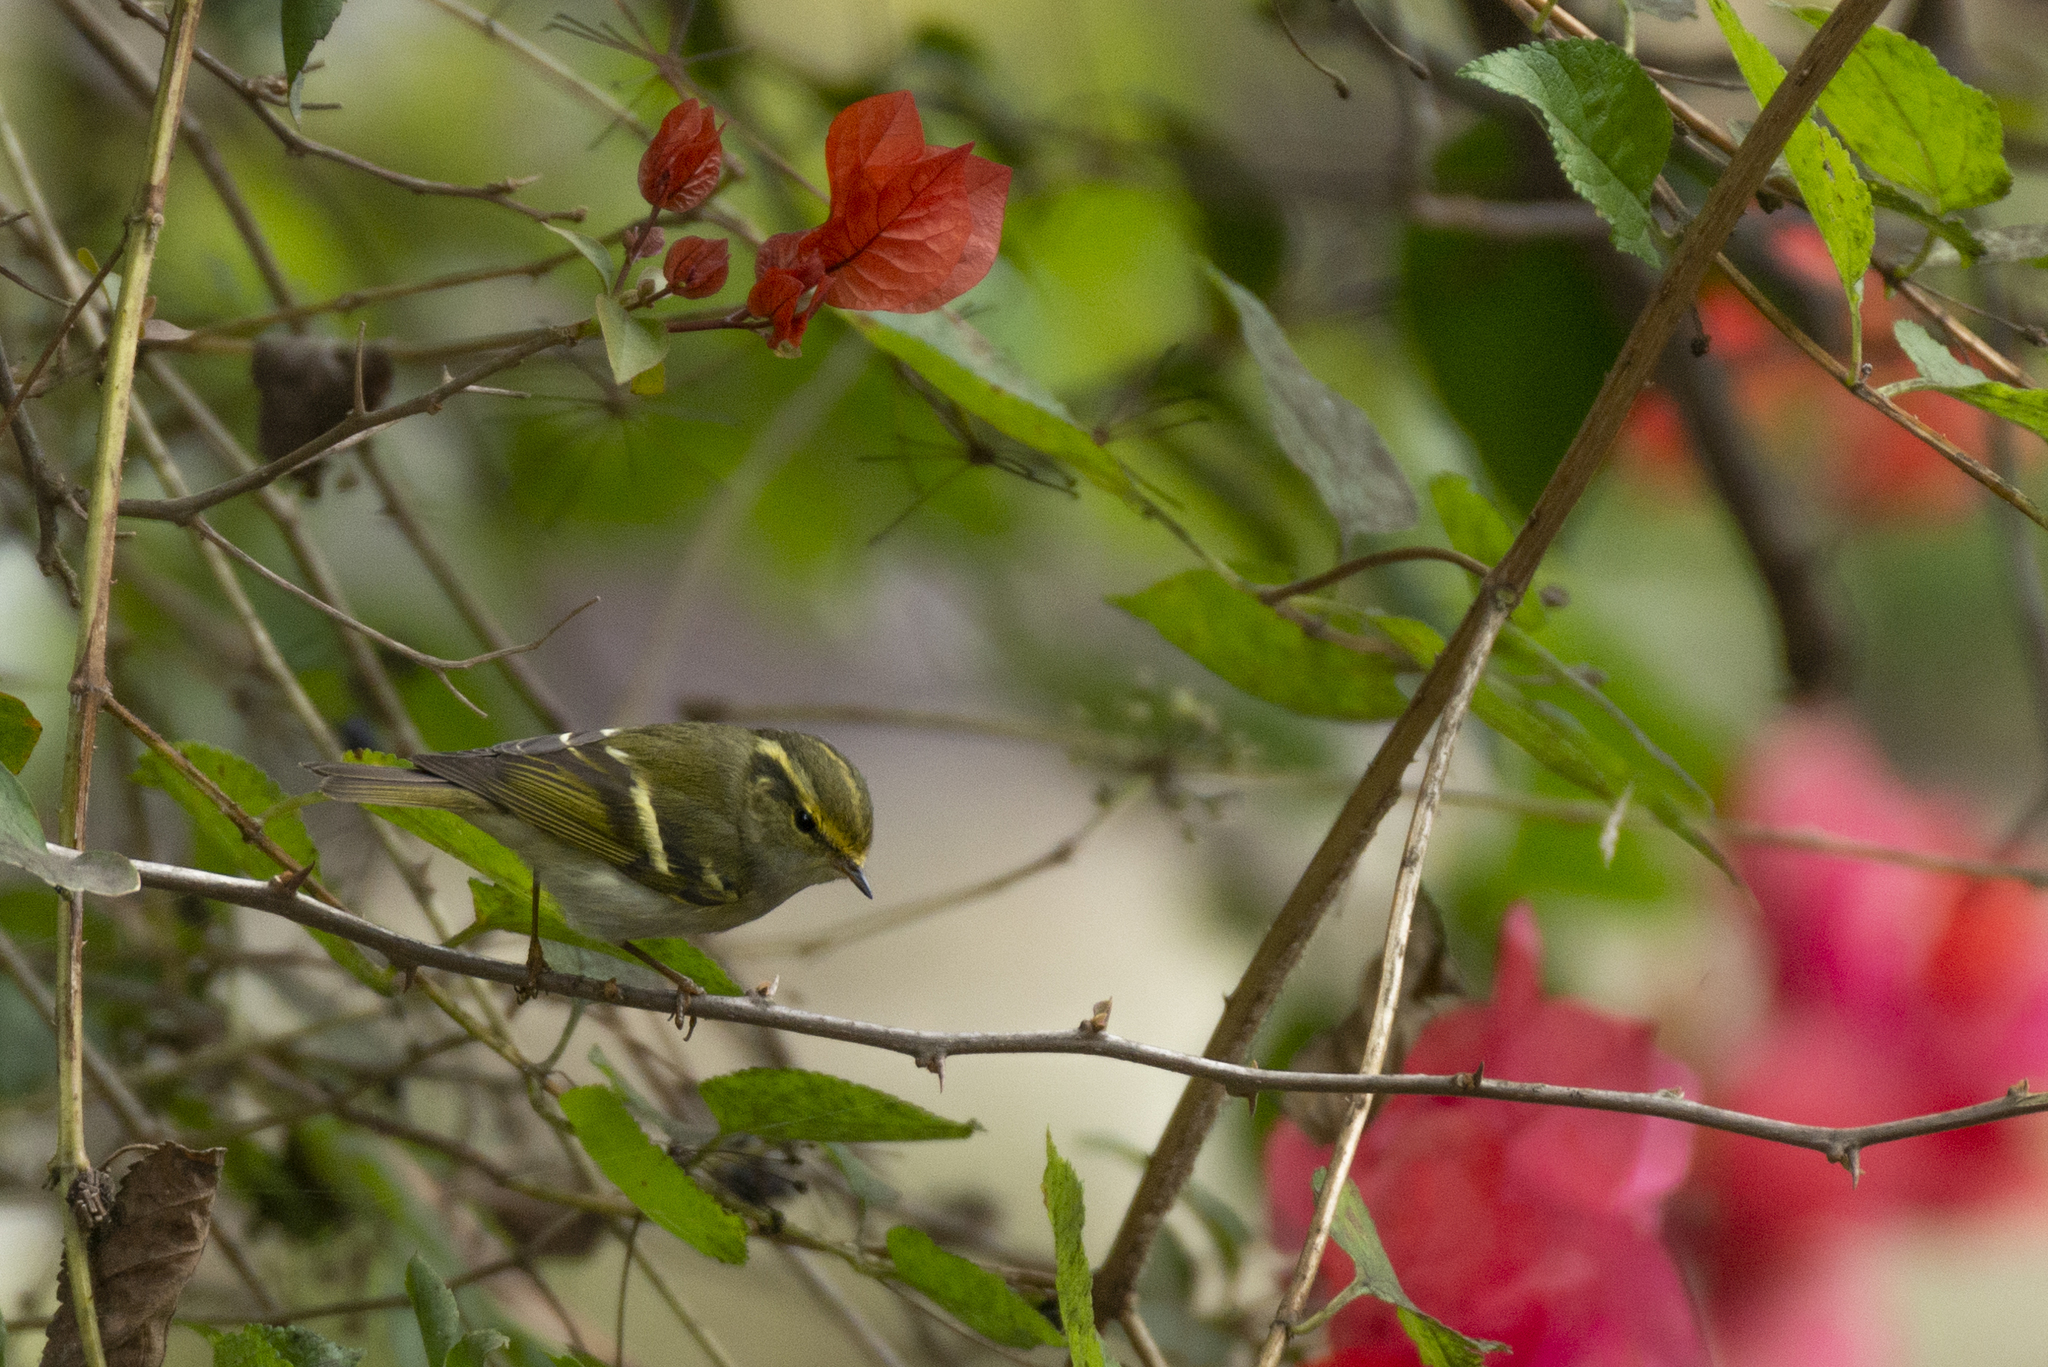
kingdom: Animalia
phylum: Chordata
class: Aves
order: Passeriformes
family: Phylloscopidae
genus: Phylloscopus
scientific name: Phylloscopus proregulus
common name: Pallas's leaf warbler
